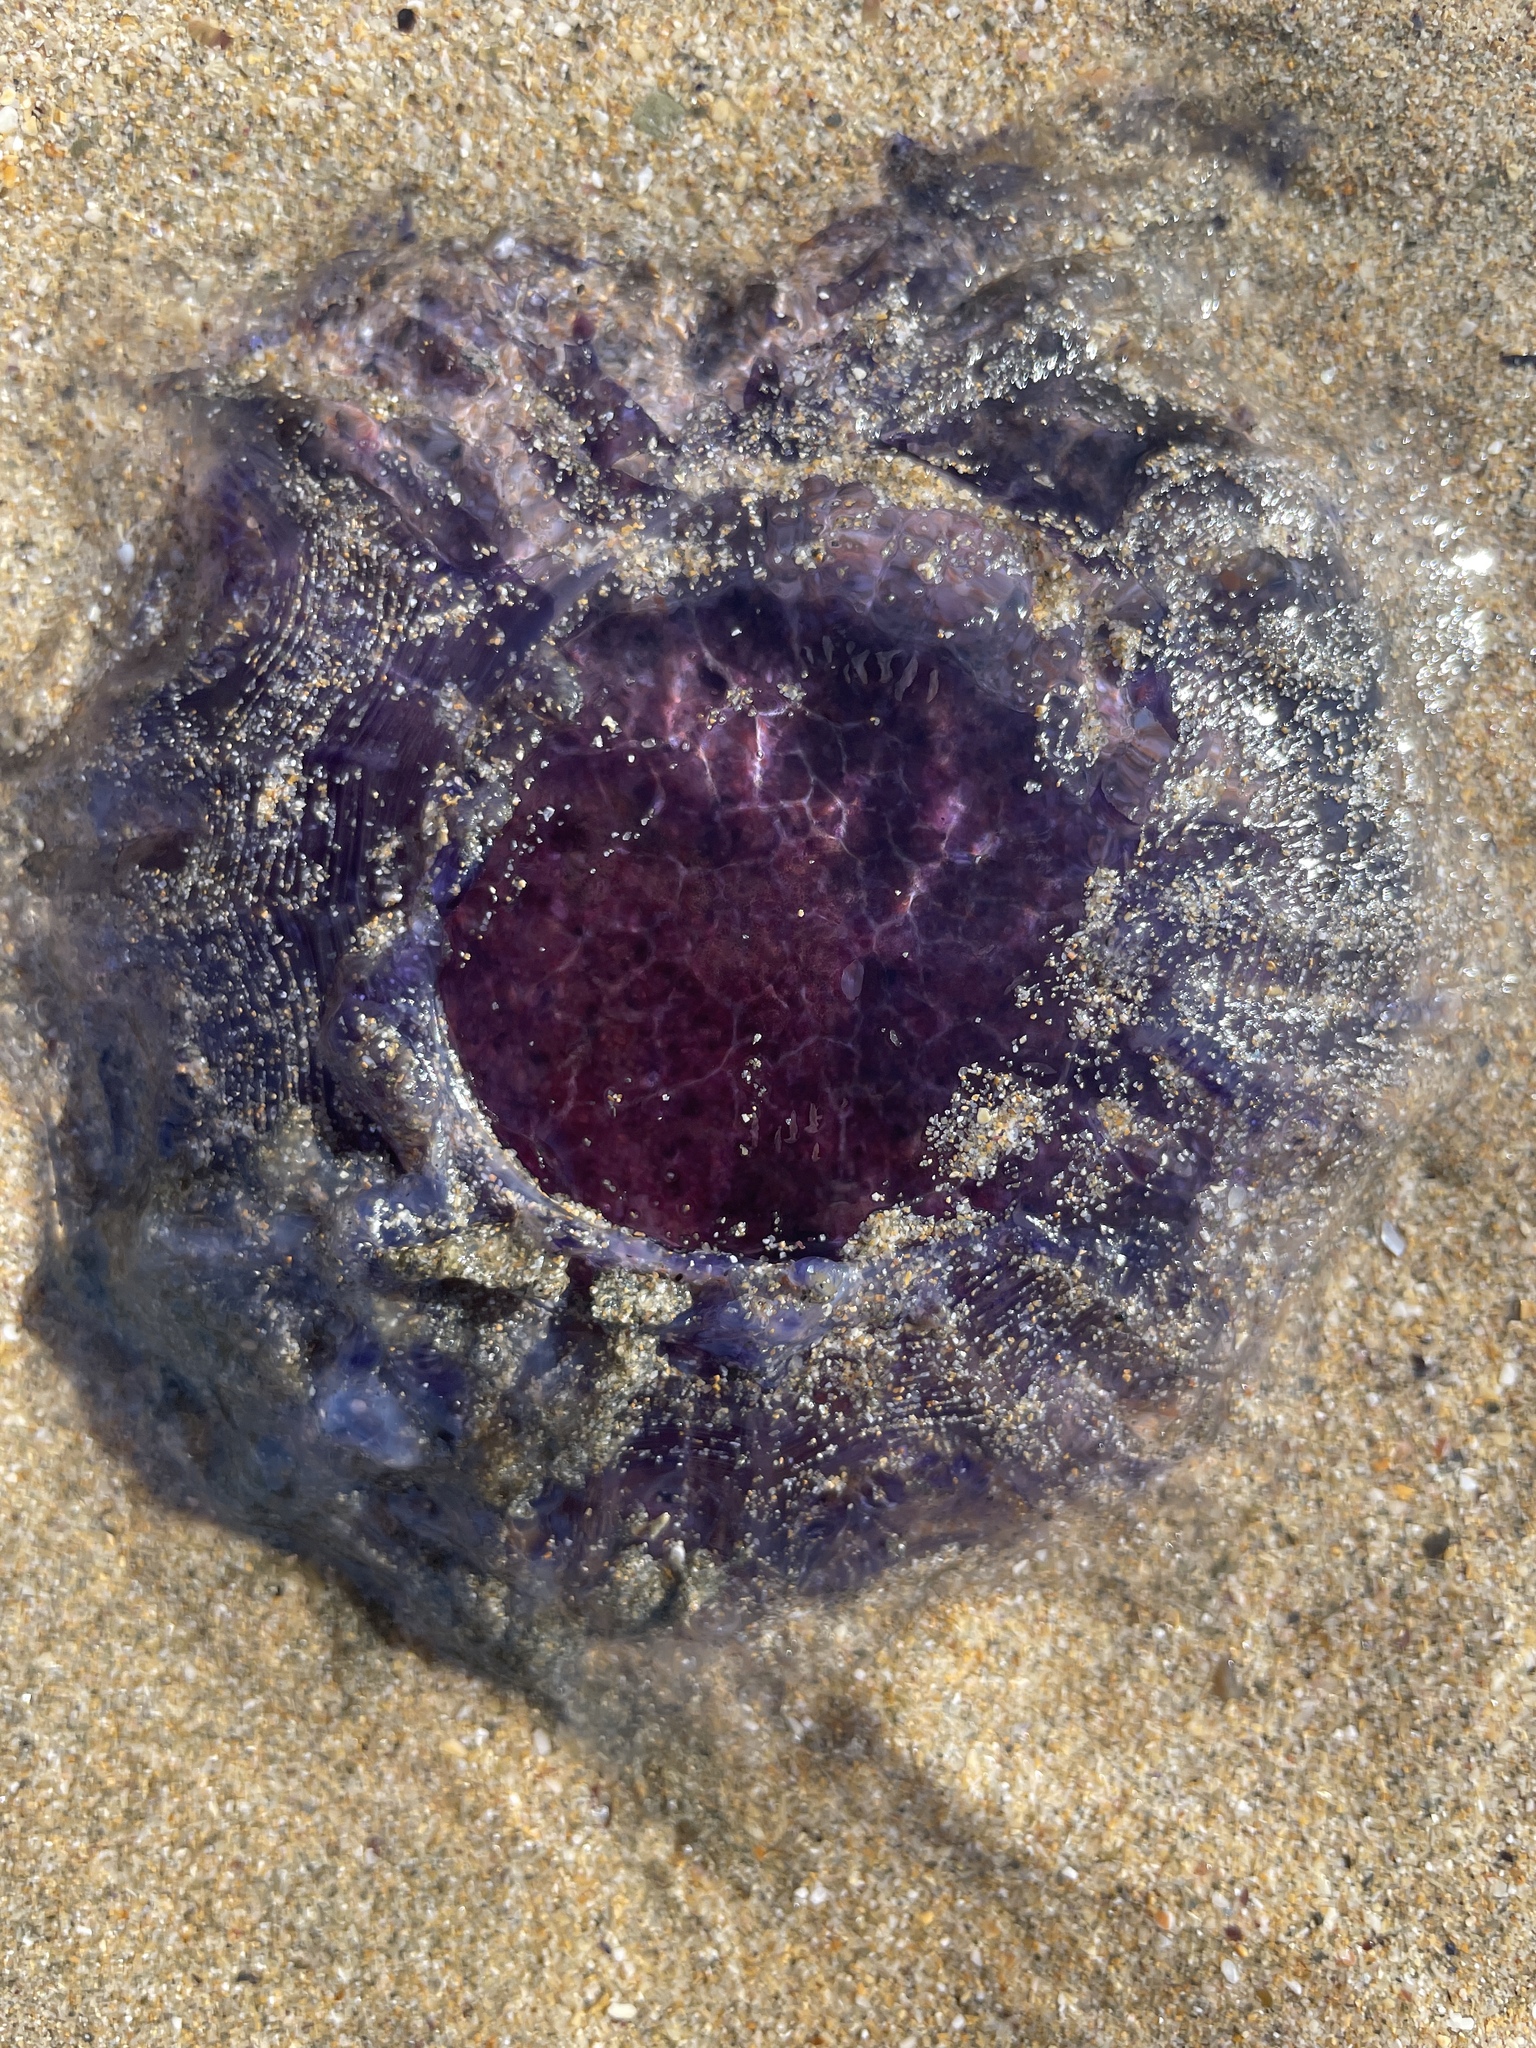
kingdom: Animalia
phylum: Cnidaria
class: Scyphozoa
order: Semaeostomeae
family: Cyaneidae
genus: Cyanea
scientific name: Cyanea lamarckii
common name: Blue jellyfish
